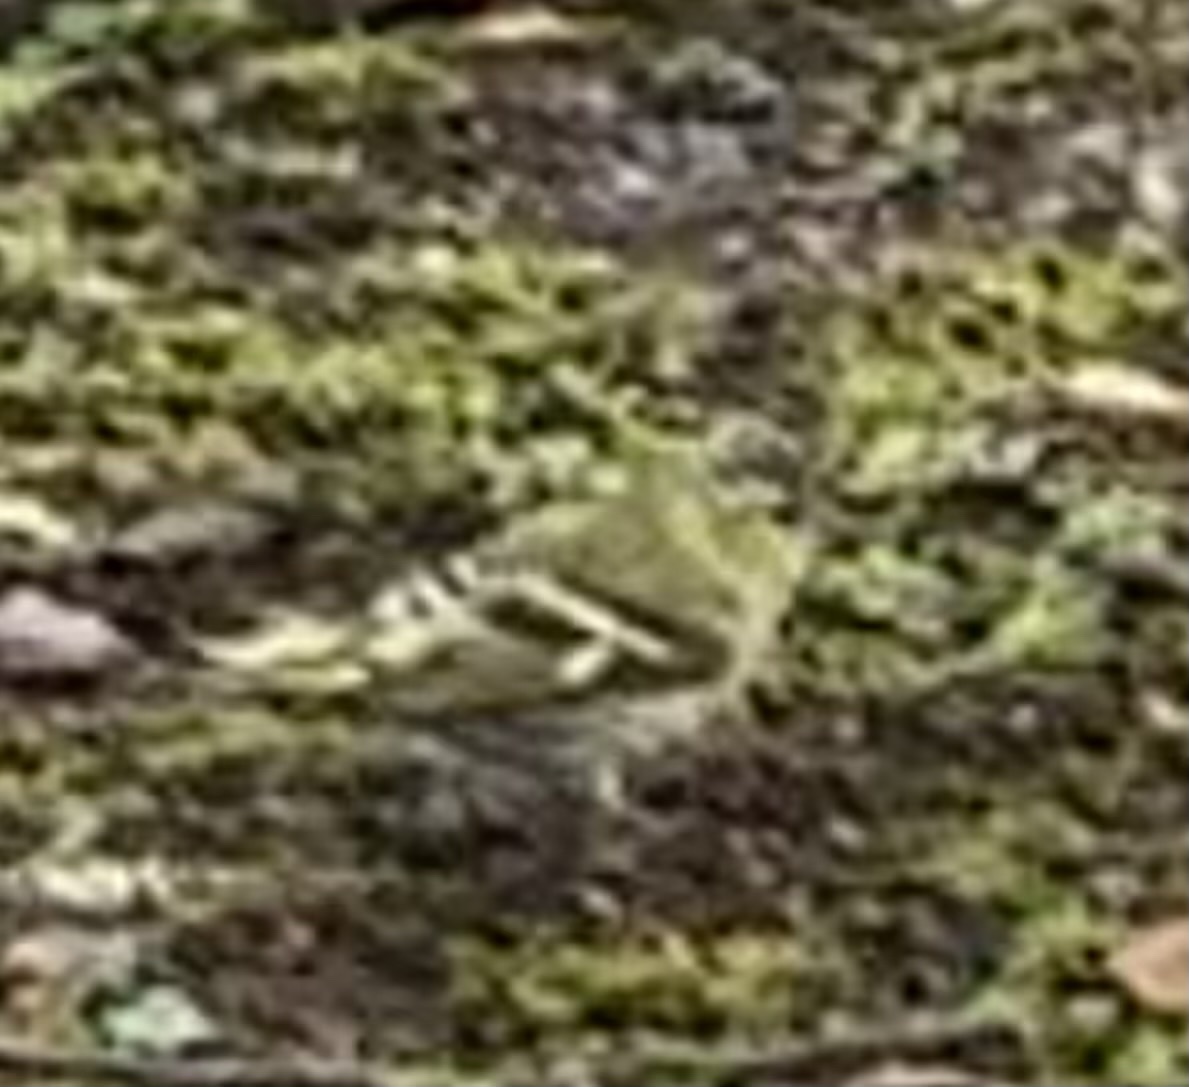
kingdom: Animalia
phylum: Chordata
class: Aves
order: Passeriformes
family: Fringillidae
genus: Spinus
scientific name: Spinus spinus
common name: Eurasian siskin
